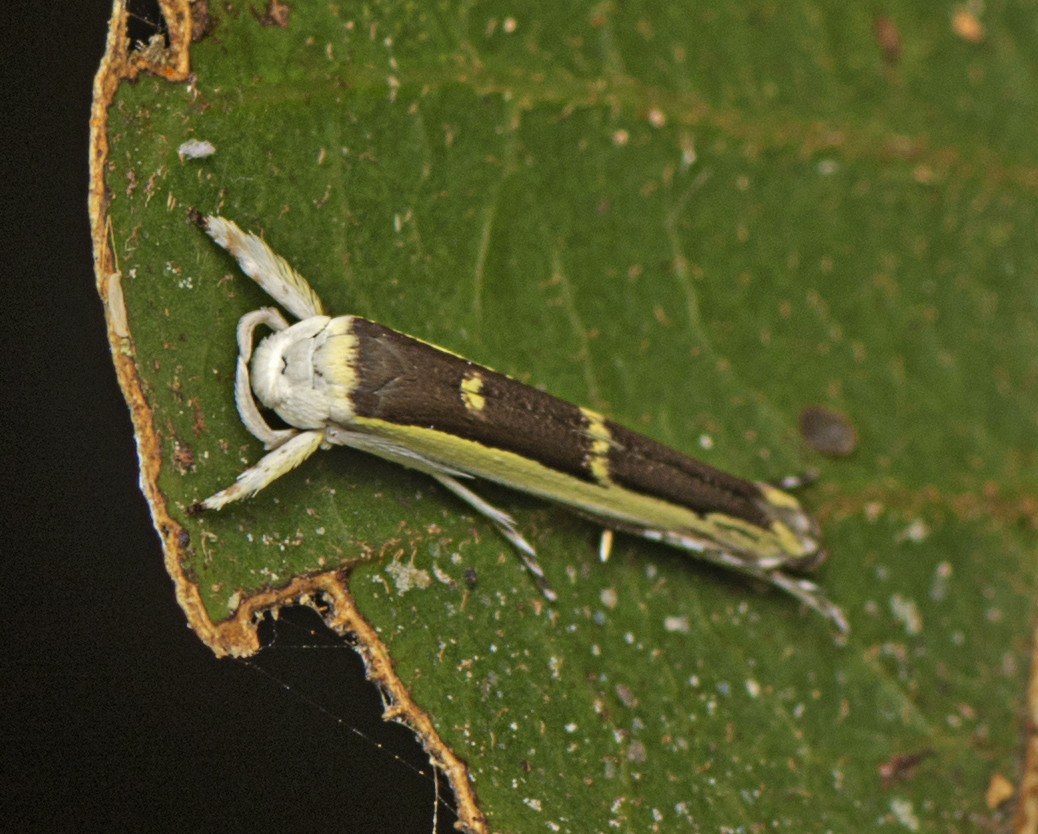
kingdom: Animalia
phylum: Arthropoda
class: Insecta
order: Lepidoptera
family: Roeslerstammiidae
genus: Vanicela
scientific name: Vanicela xenadelpha
